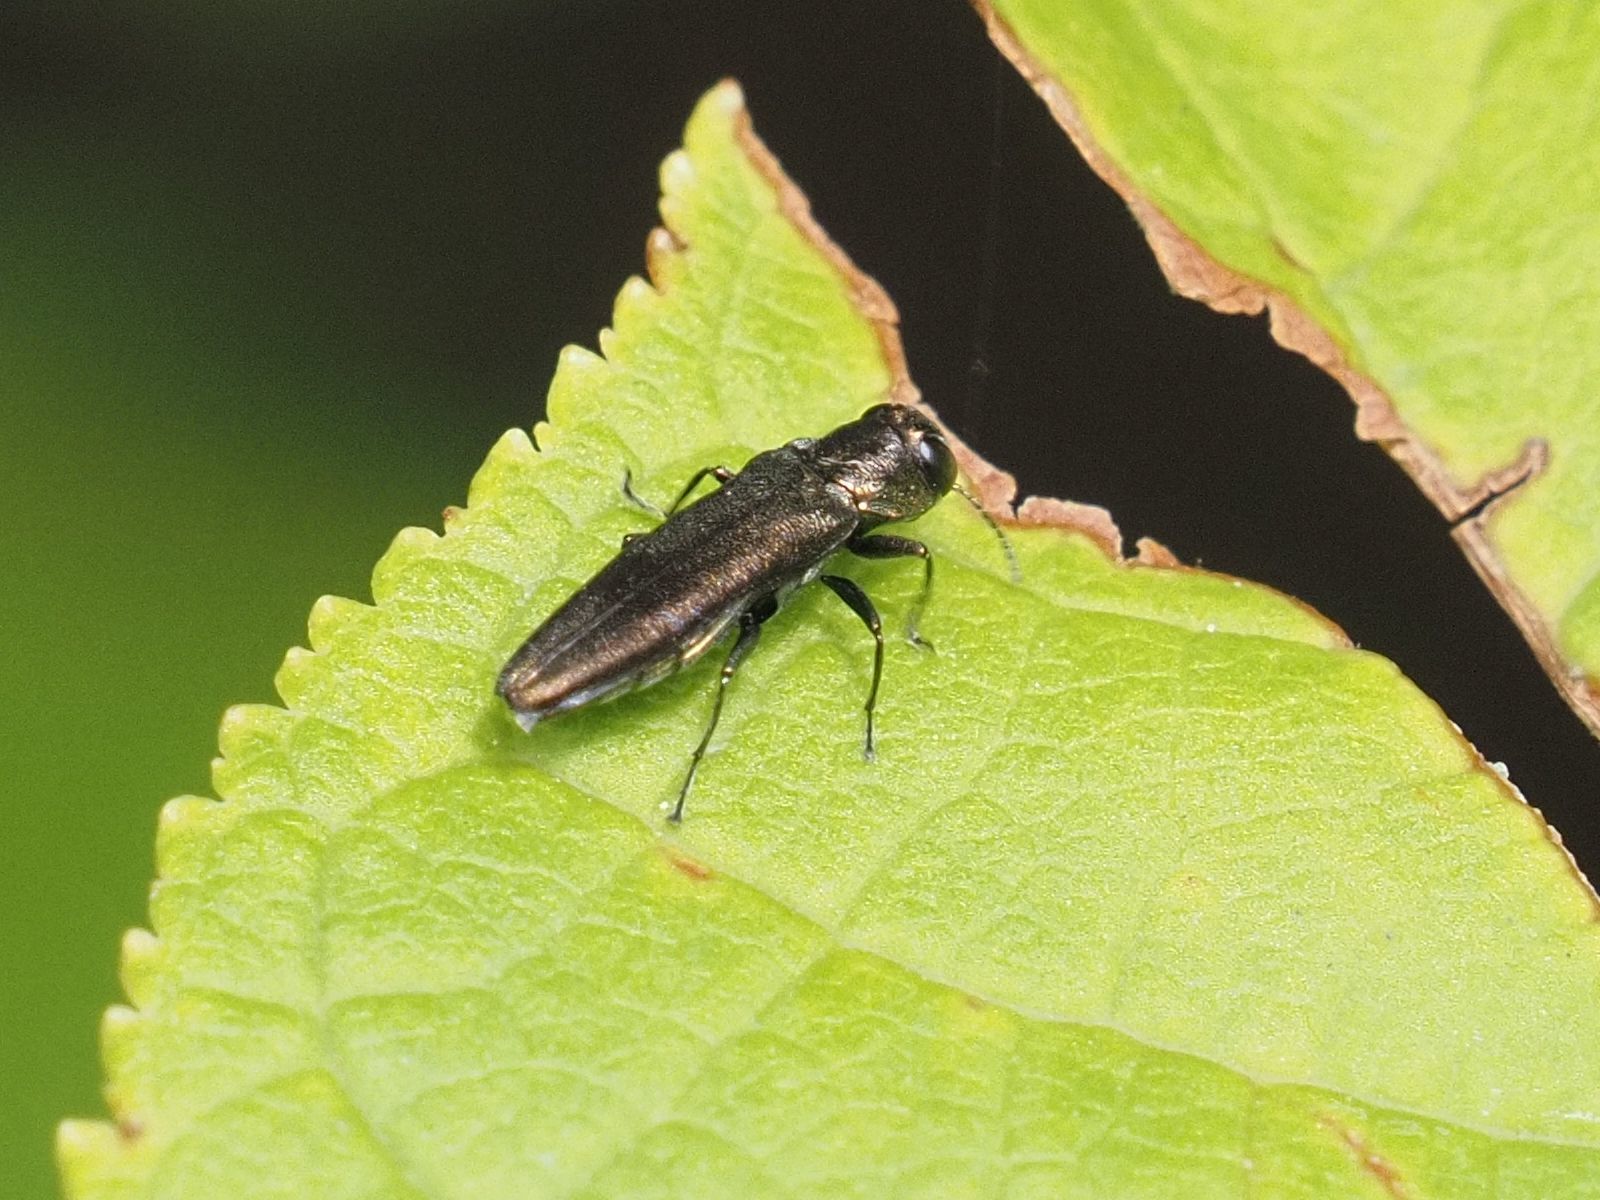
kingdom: Animalia
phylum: Arthropoda
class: Insecta
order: Coleoptera
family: Buprestidae
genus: Agrilus
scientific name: Agrilus derasofasciatus
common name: Metallic wood-boring beetle
